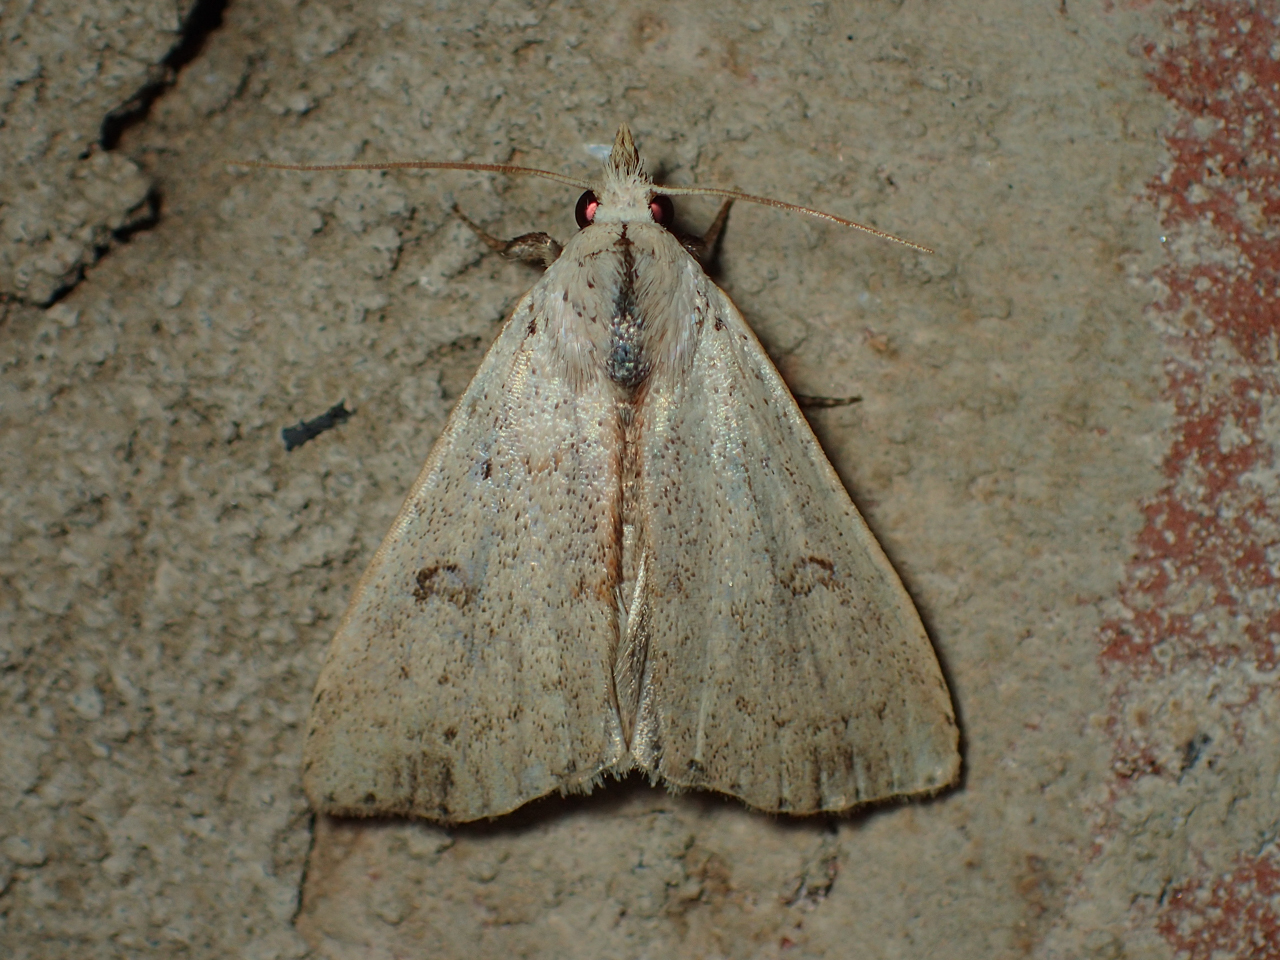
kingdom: Animalia
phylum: Arthropoda
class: Insecta
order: Lepidoptera
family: Erebidae
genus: Scolecocampa
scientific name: Scolecocampa liburna
